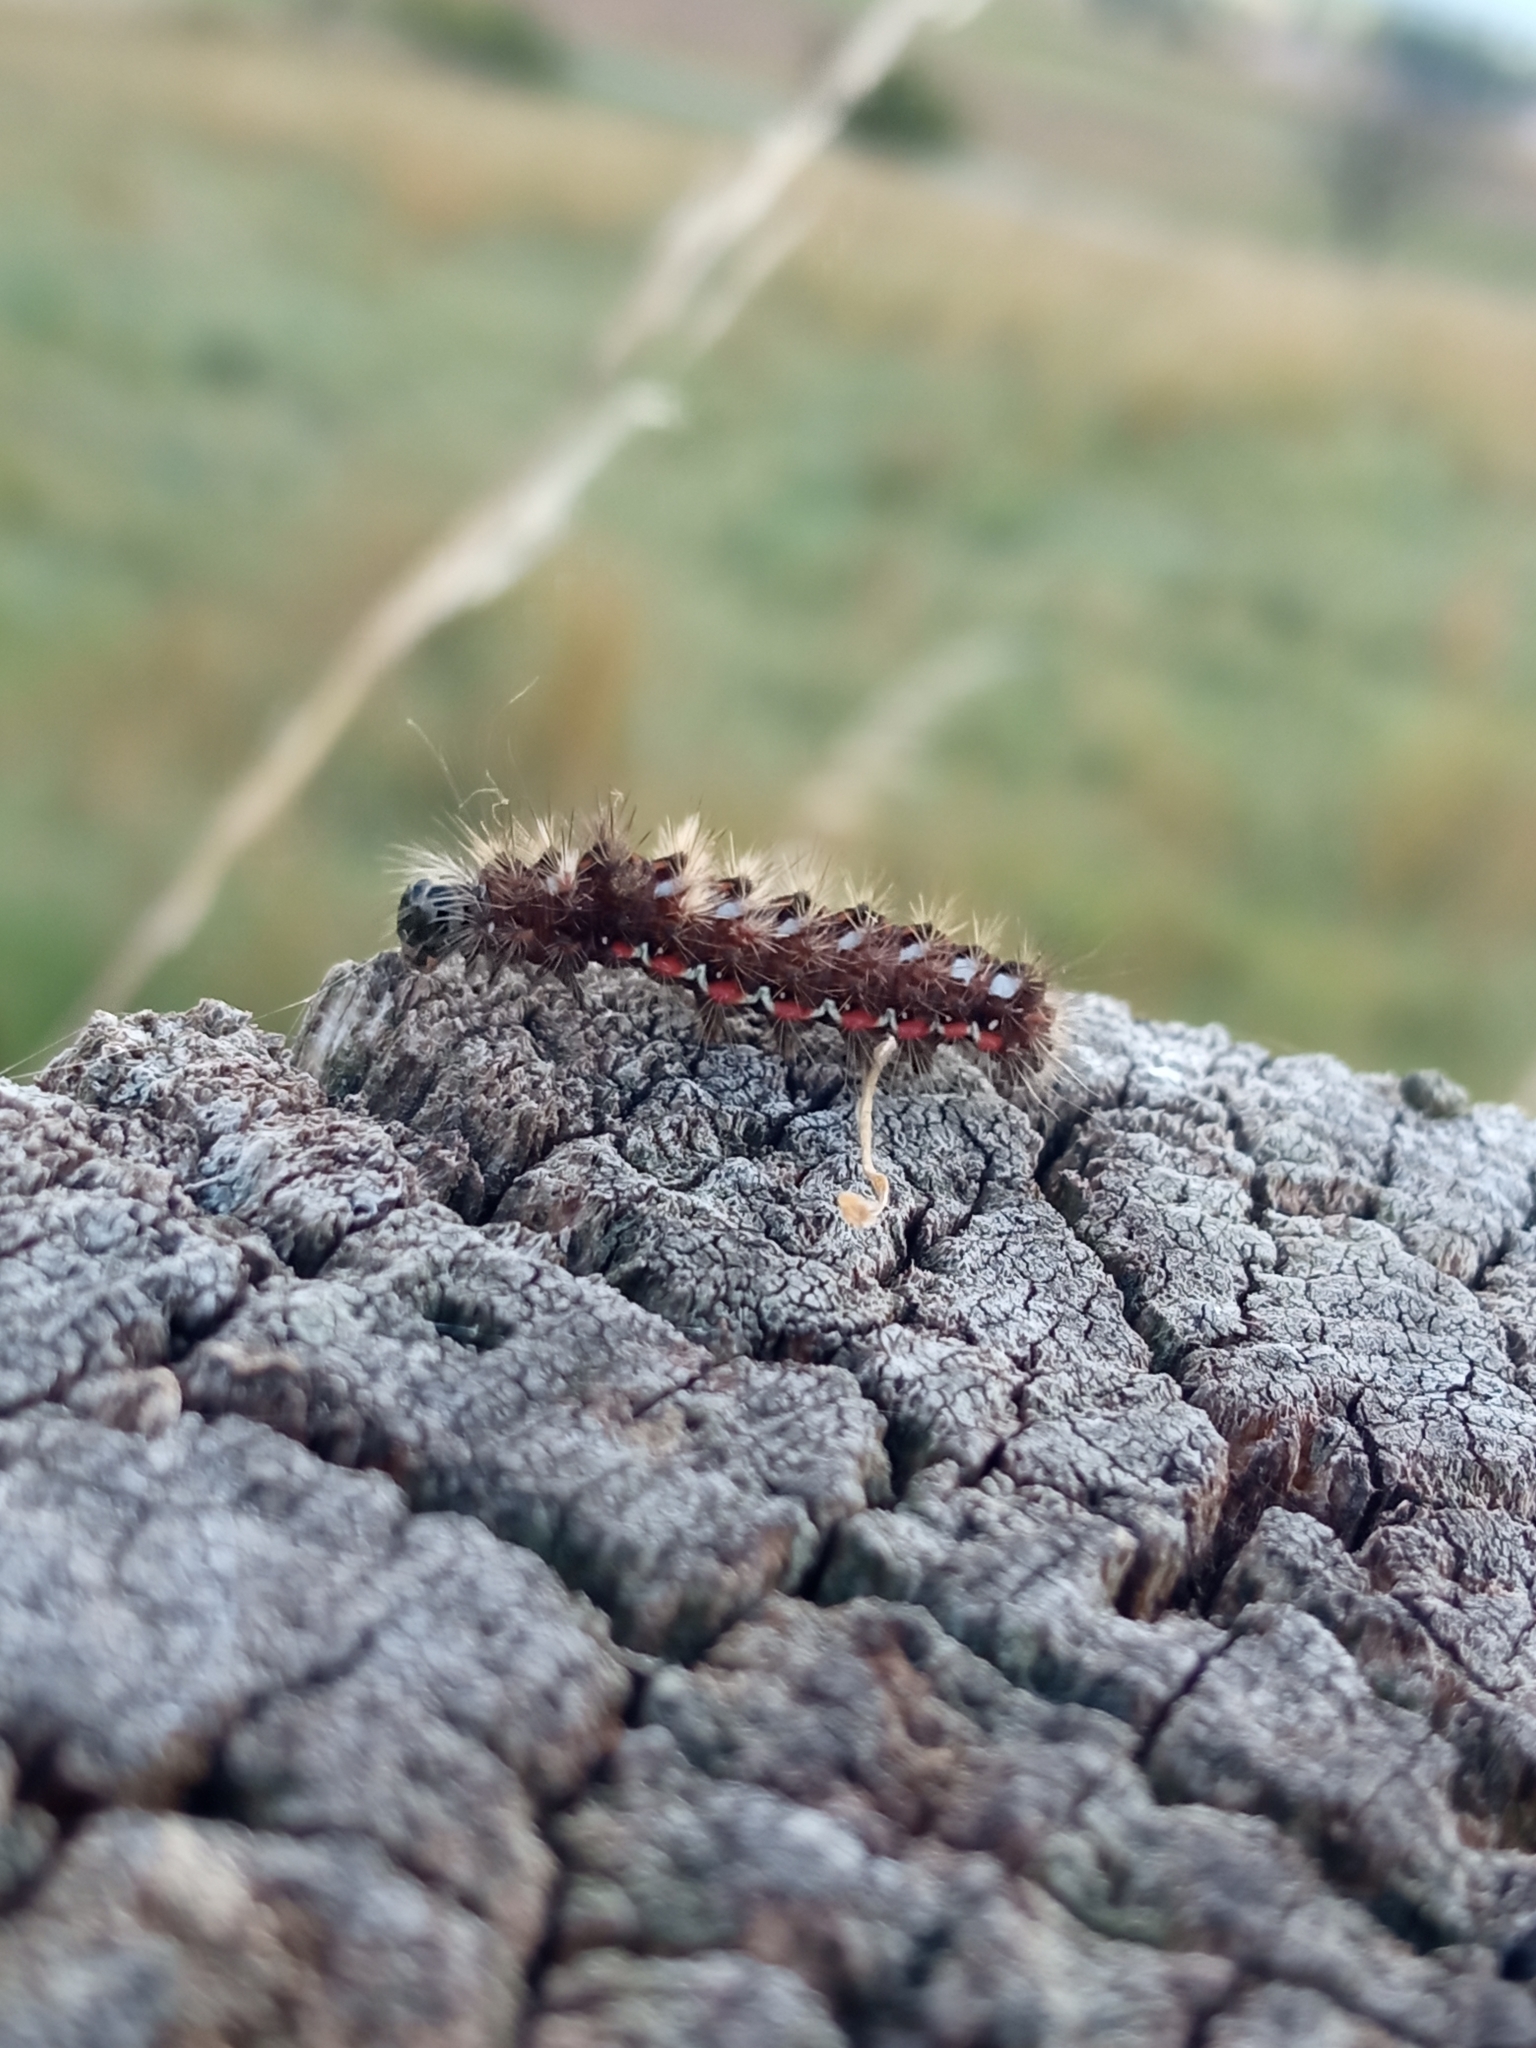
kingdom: Animalia
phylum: Arthropoda
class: Insecta
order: Lepidoptera
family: Noctuidae
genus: Acronicta
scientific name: Acronicta rumicis
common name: Knot grass
